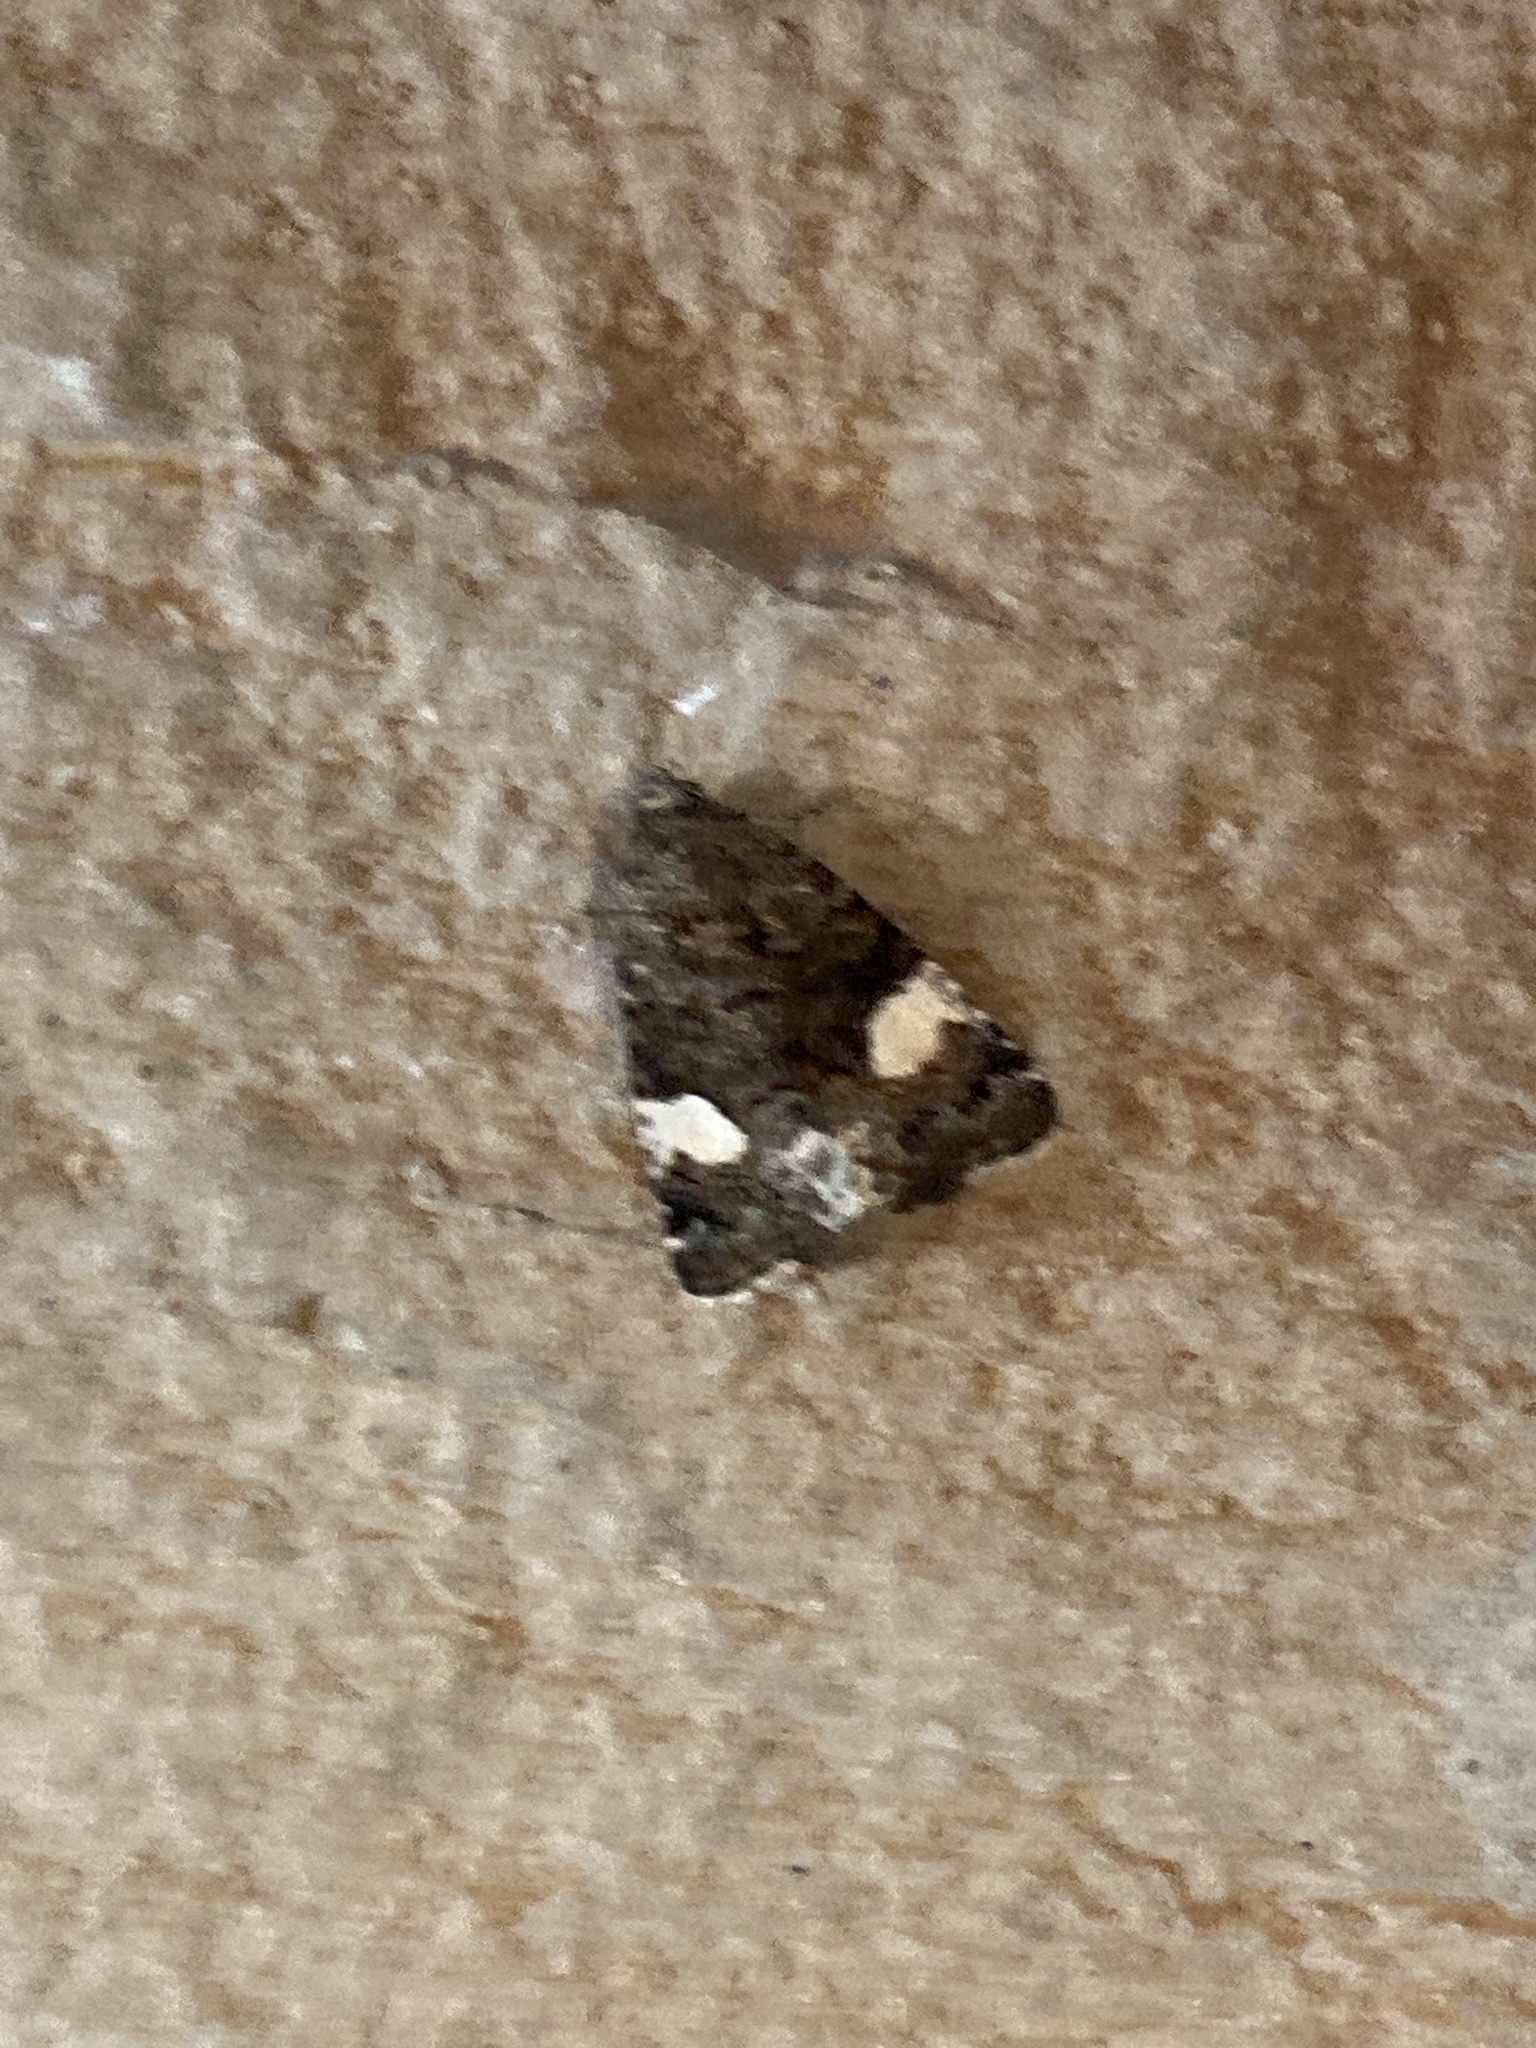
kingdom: Animalia
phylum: Arthropoda
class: Insecta
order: Lepidoptera
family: Erebidae
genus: Tyta
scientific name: Tyta luctuosa
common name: Four-spotted
